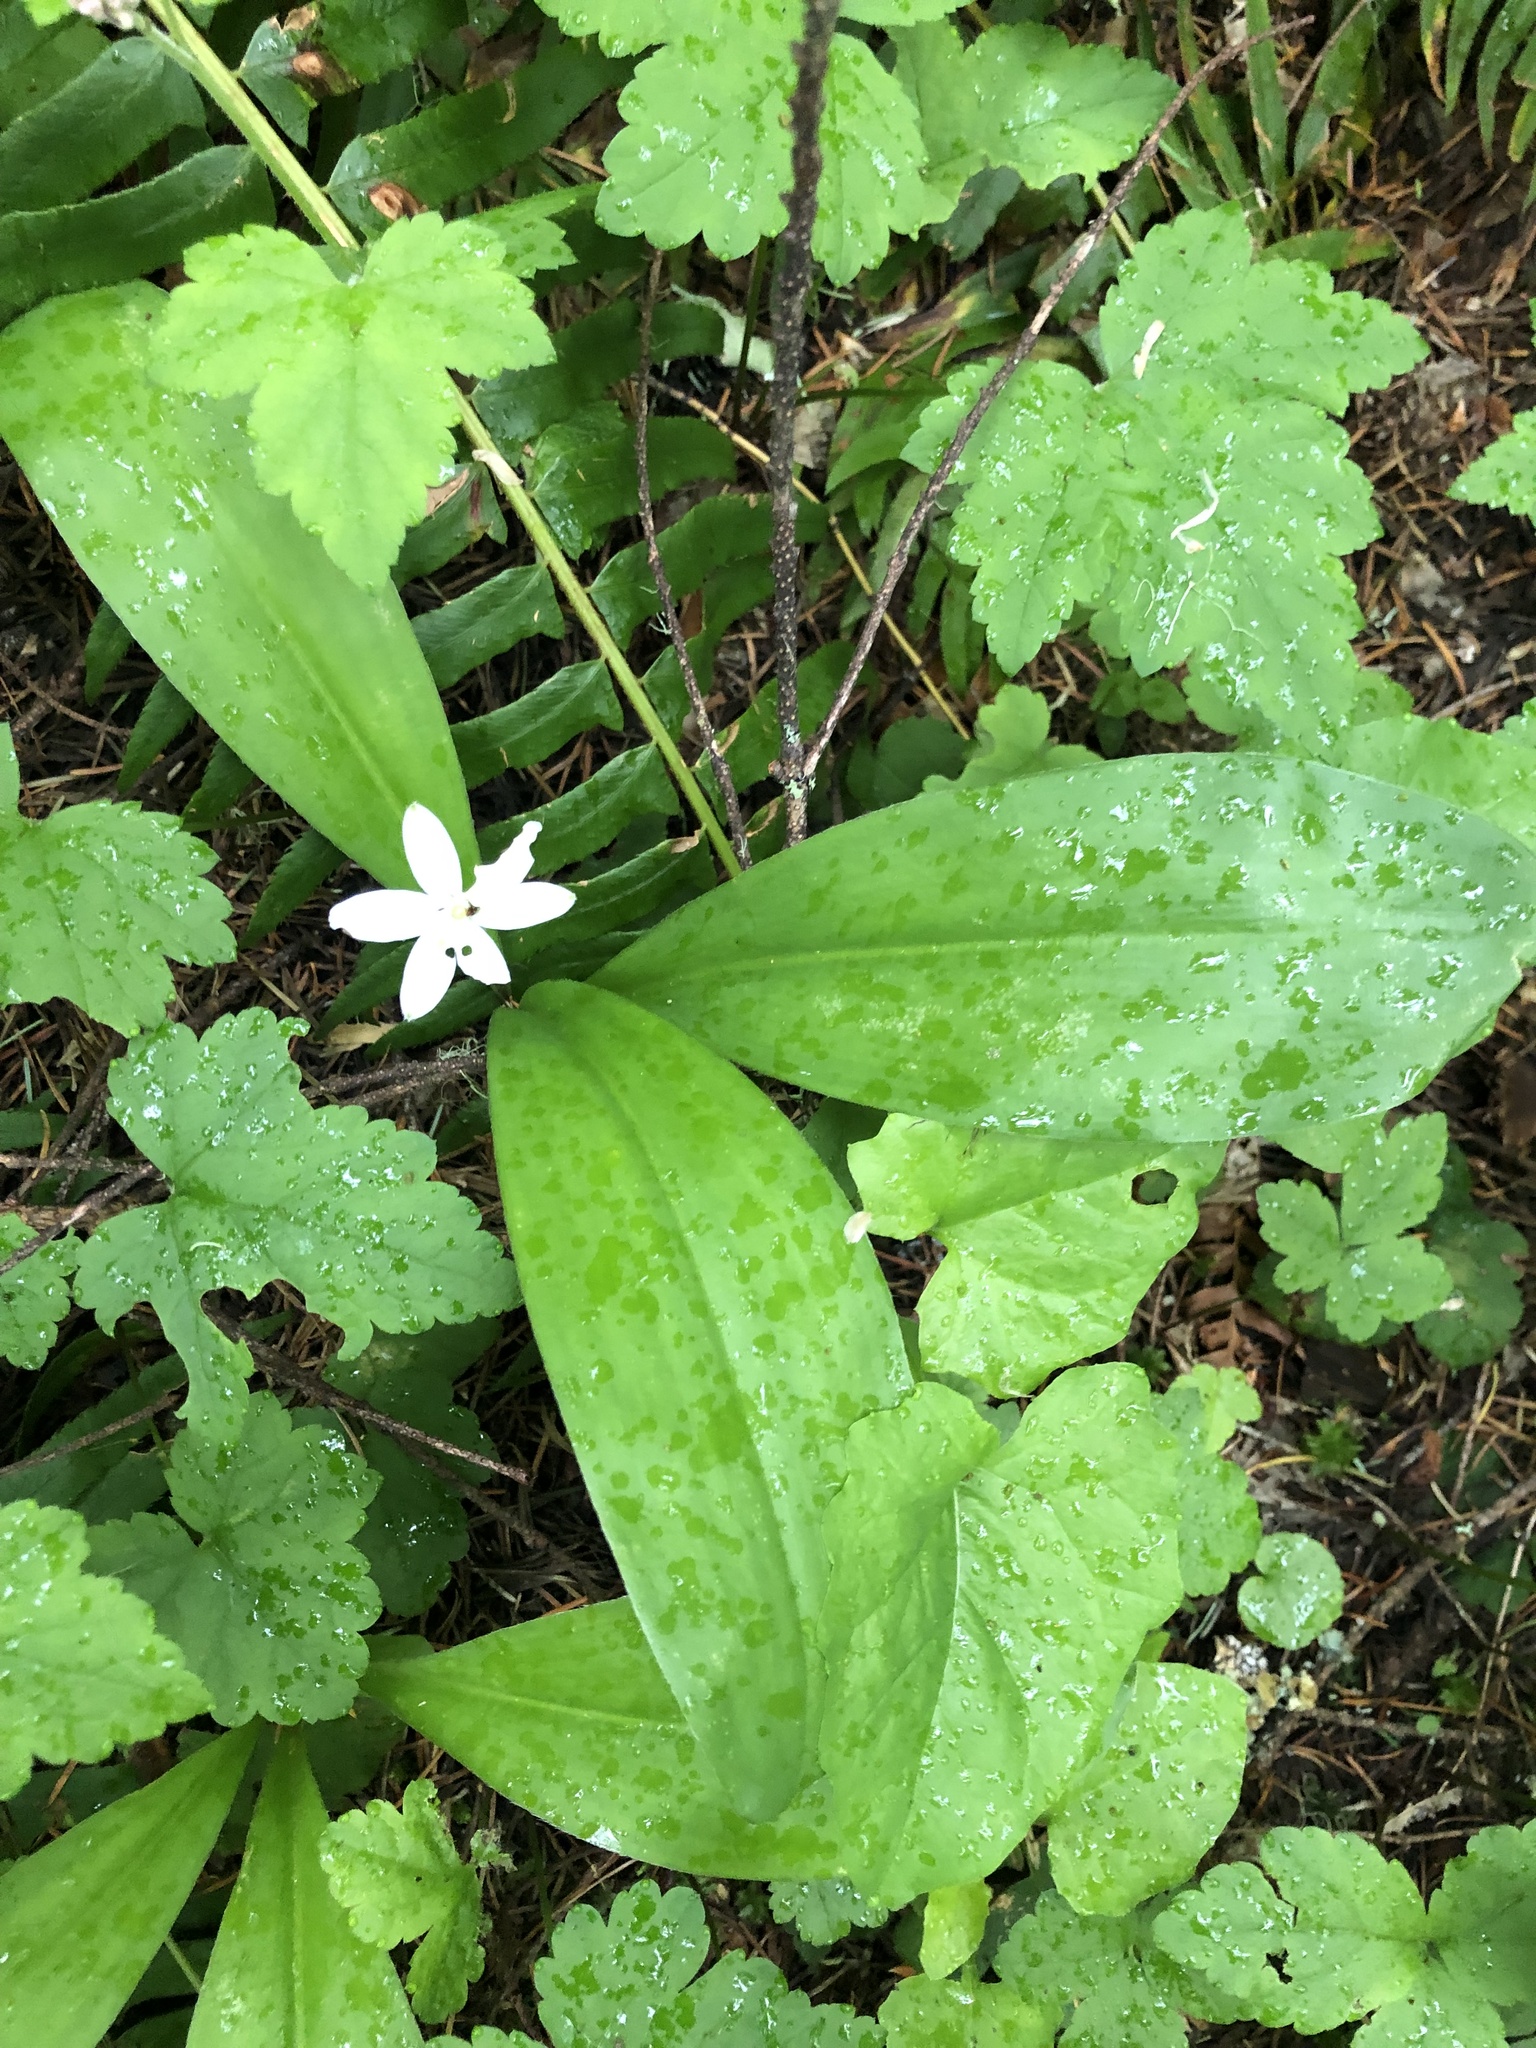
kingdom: Plantae
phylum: Tracheophyta
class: Liliopsida
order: Liliales
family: Liliaceae
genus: Clintonia
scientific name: Clintonia uniflora
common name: Queen's cup
